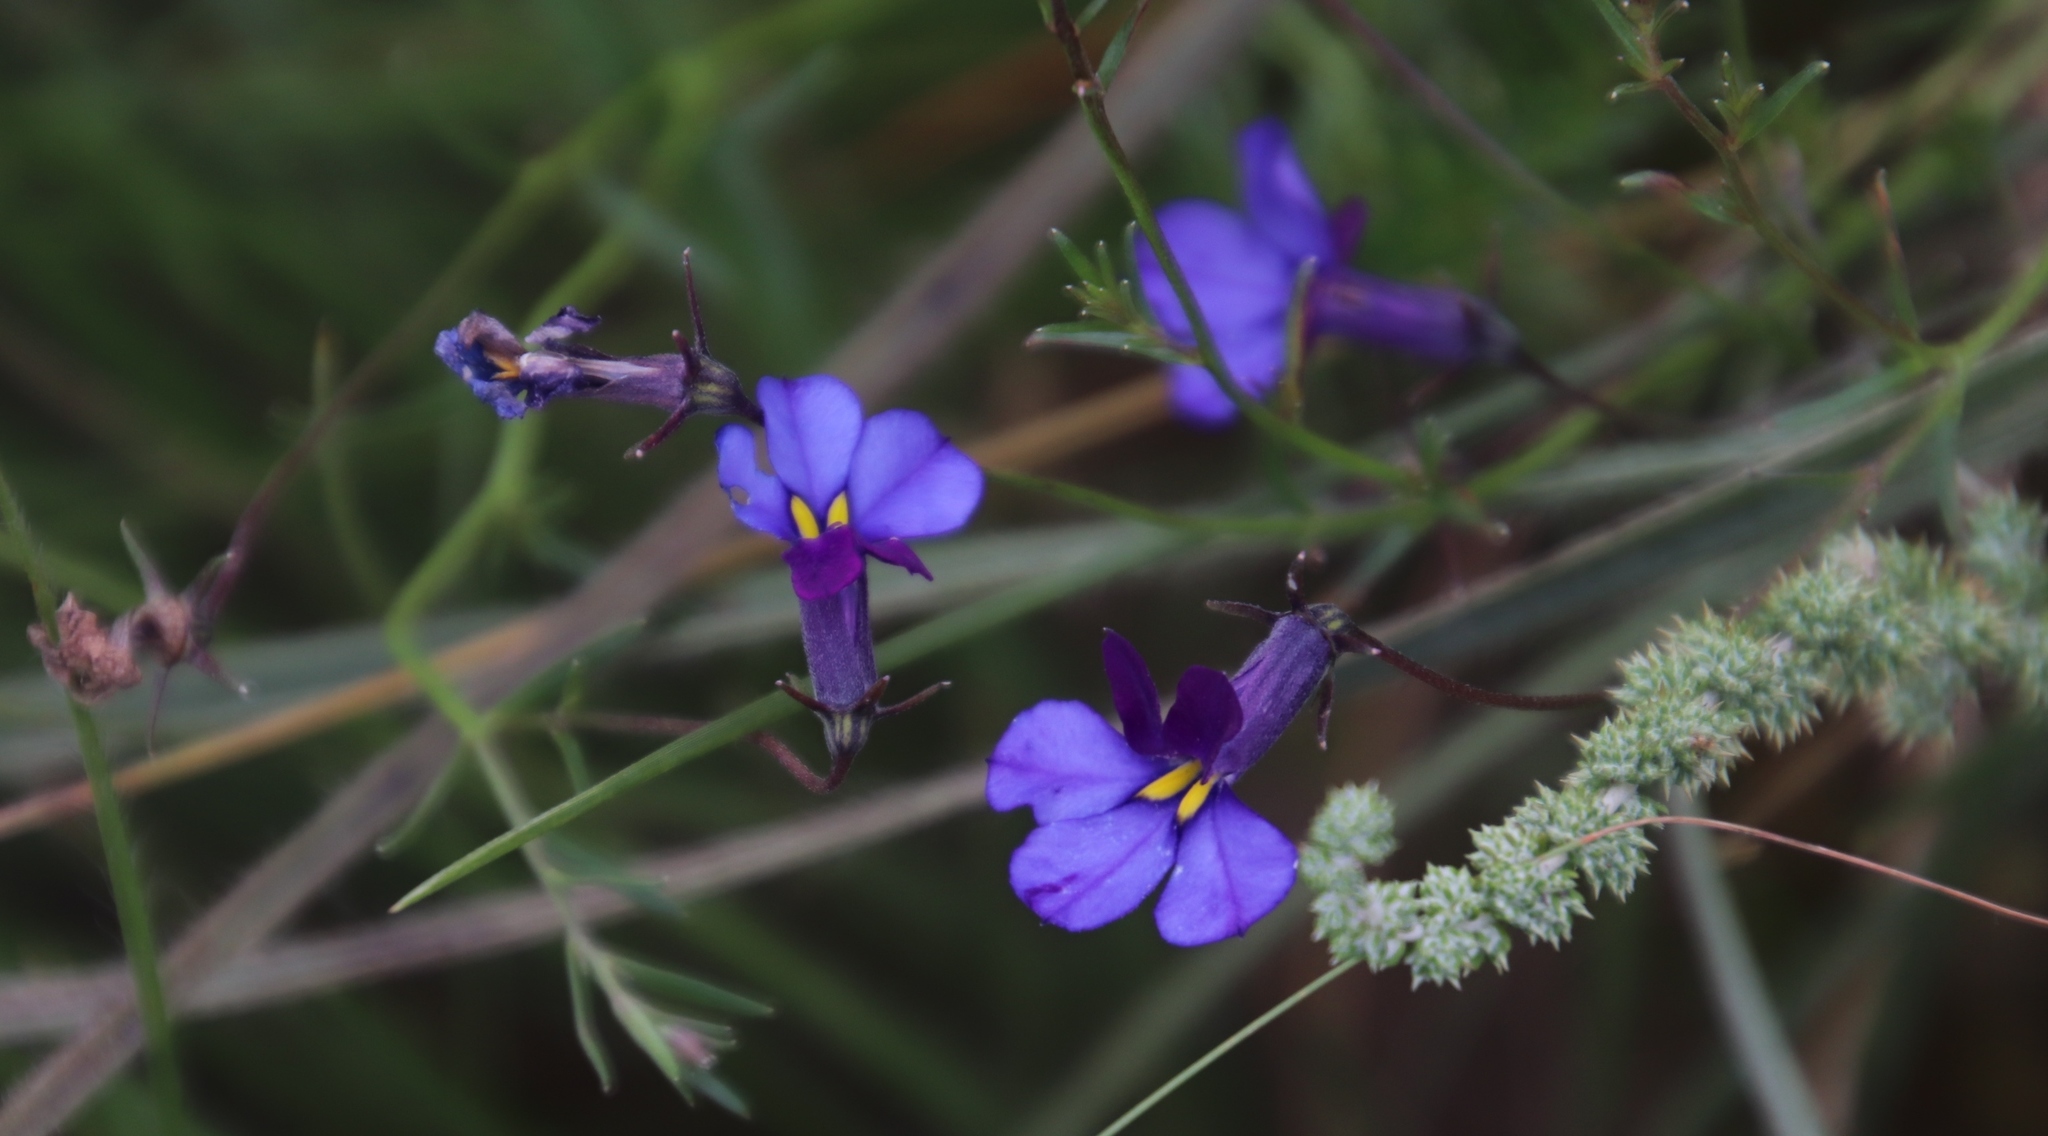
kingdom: Plantae
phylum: Tracheophyta
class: Magnoliopsida
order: Asterales
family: Campanulaceae
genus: Monopsis
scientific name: Monopsis decipiens
